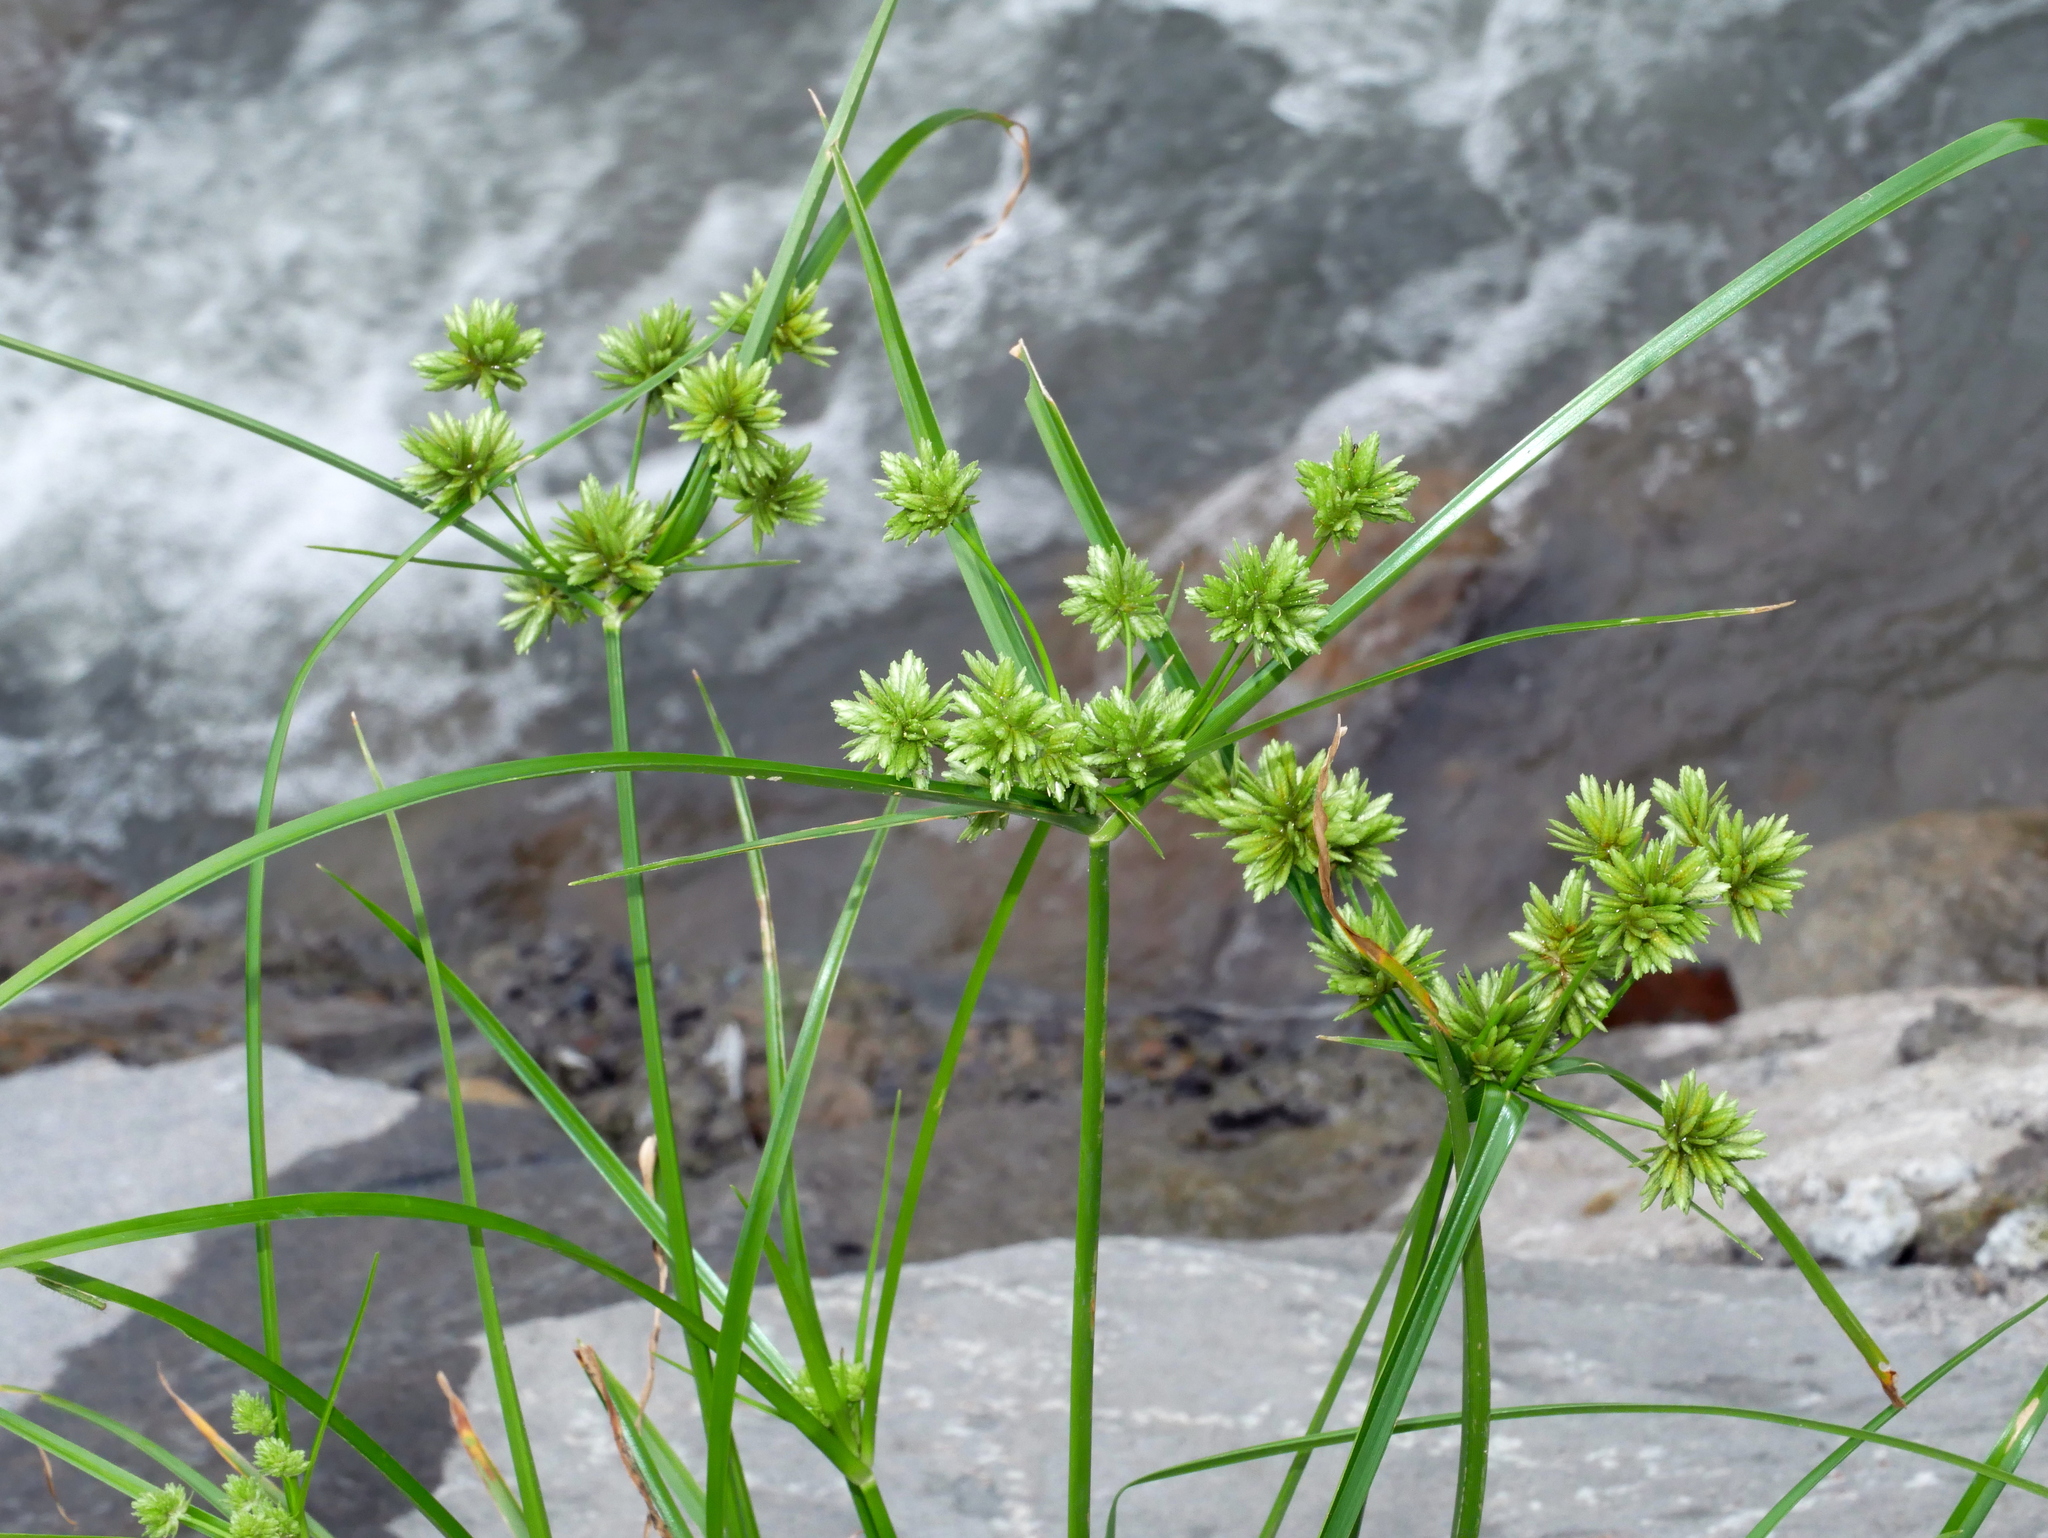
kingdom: Plantae
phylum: Tracheophyta
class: Liliopsida
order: Poales
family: Cyperaceae
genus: Cyperus
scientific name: Cyperus eragrostis
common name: Tall flatsedge
